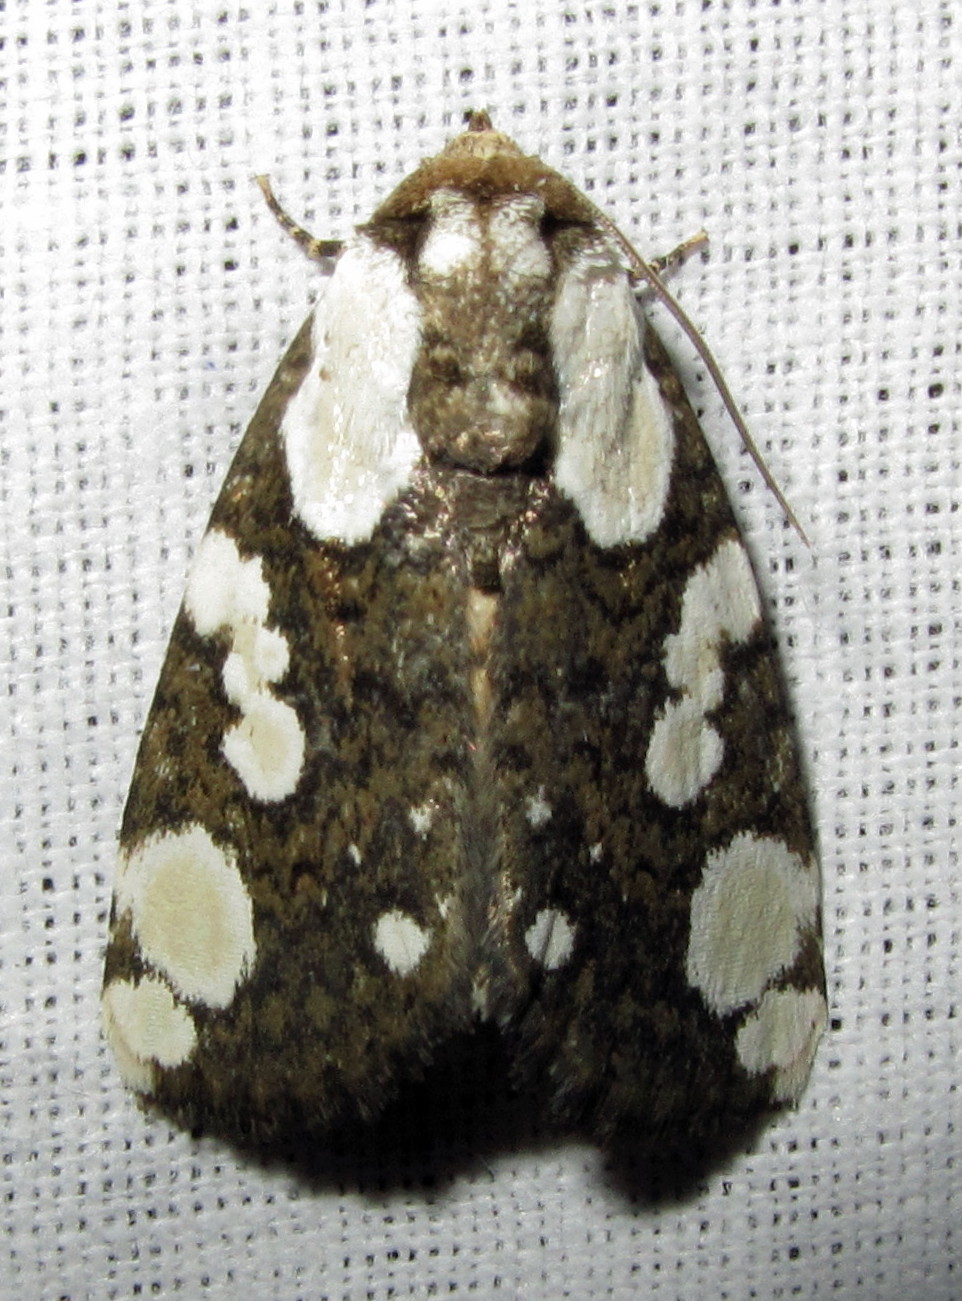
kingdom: Animalia
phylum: Arthropoda
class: Insecta
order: Lepidoptera
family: Noctuidae
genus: Mudaria
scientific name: Mudaria major
